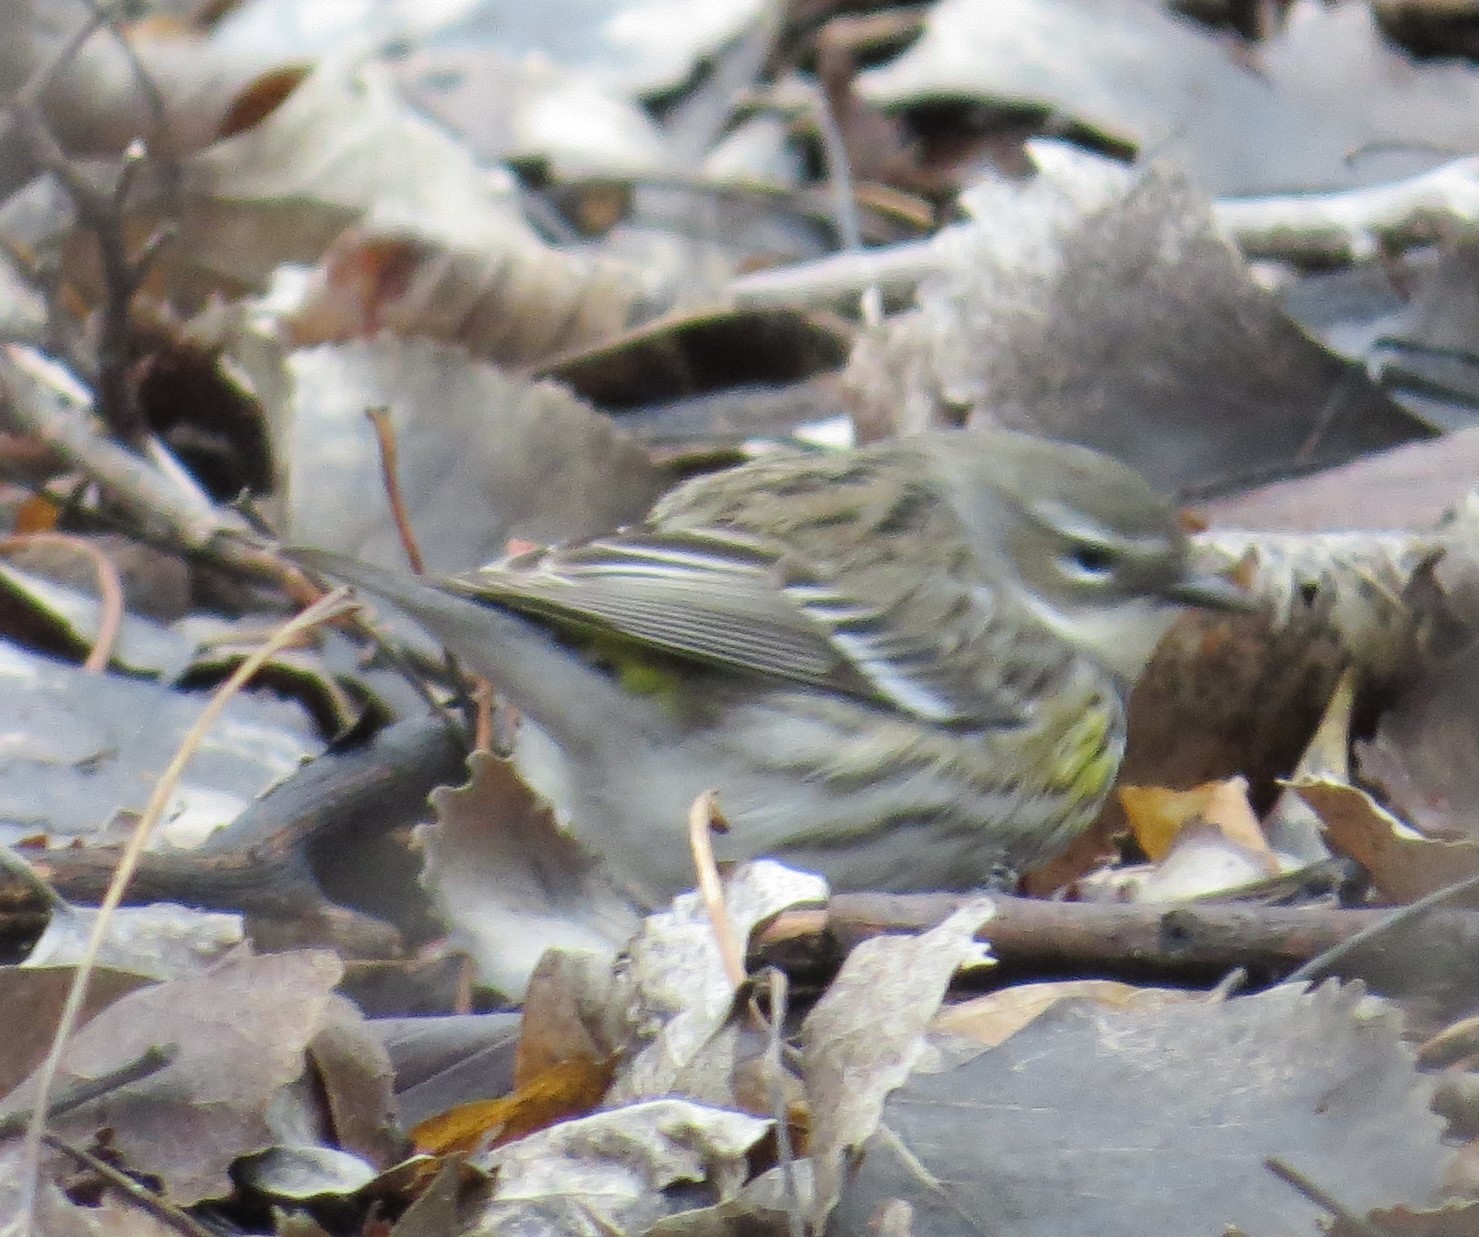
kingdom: Animalia
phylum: Chordata
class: Aves
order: Passeriformes
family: Parulidae
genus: Setophaga
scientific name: Setophaga coronata
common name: Myrtle warbler
